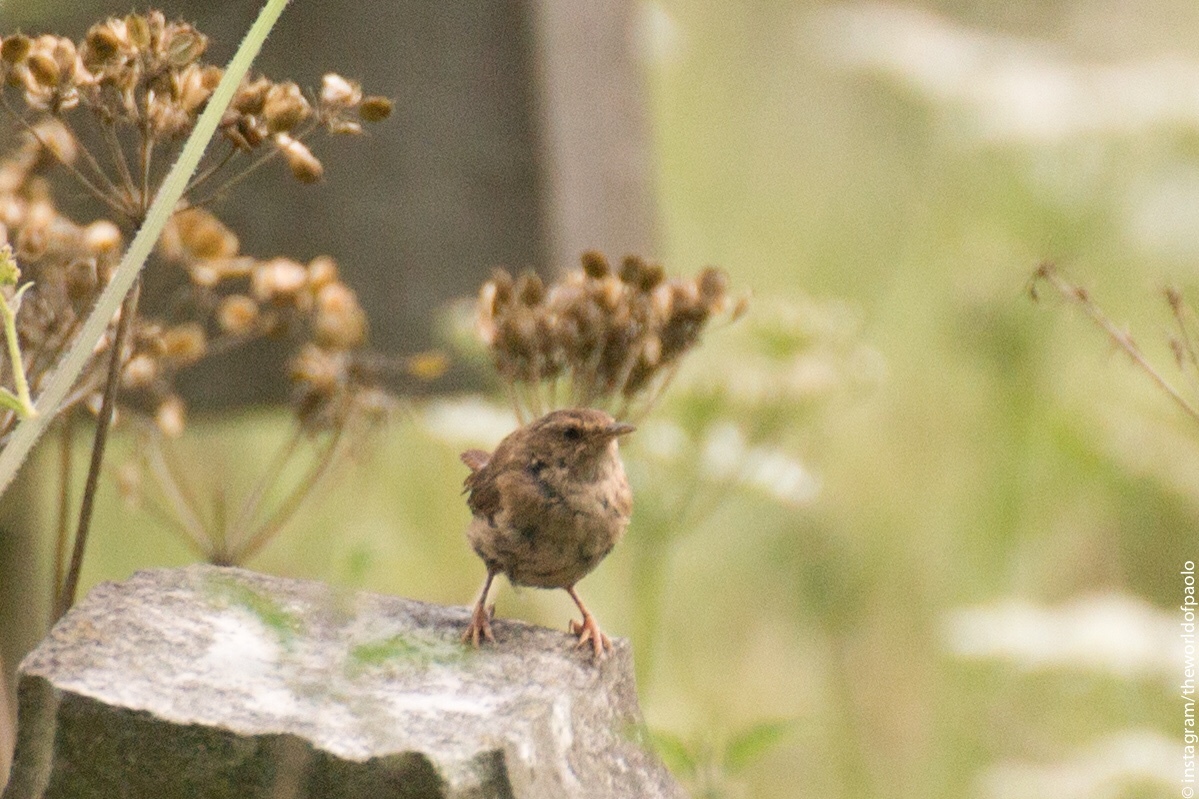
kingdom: Animalia
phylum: Chordata
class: Aves
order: Passeriformes
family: Troglodytidae
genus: Troglodytes
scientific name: Troglodytes troglodytes
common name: Eurasian wren
